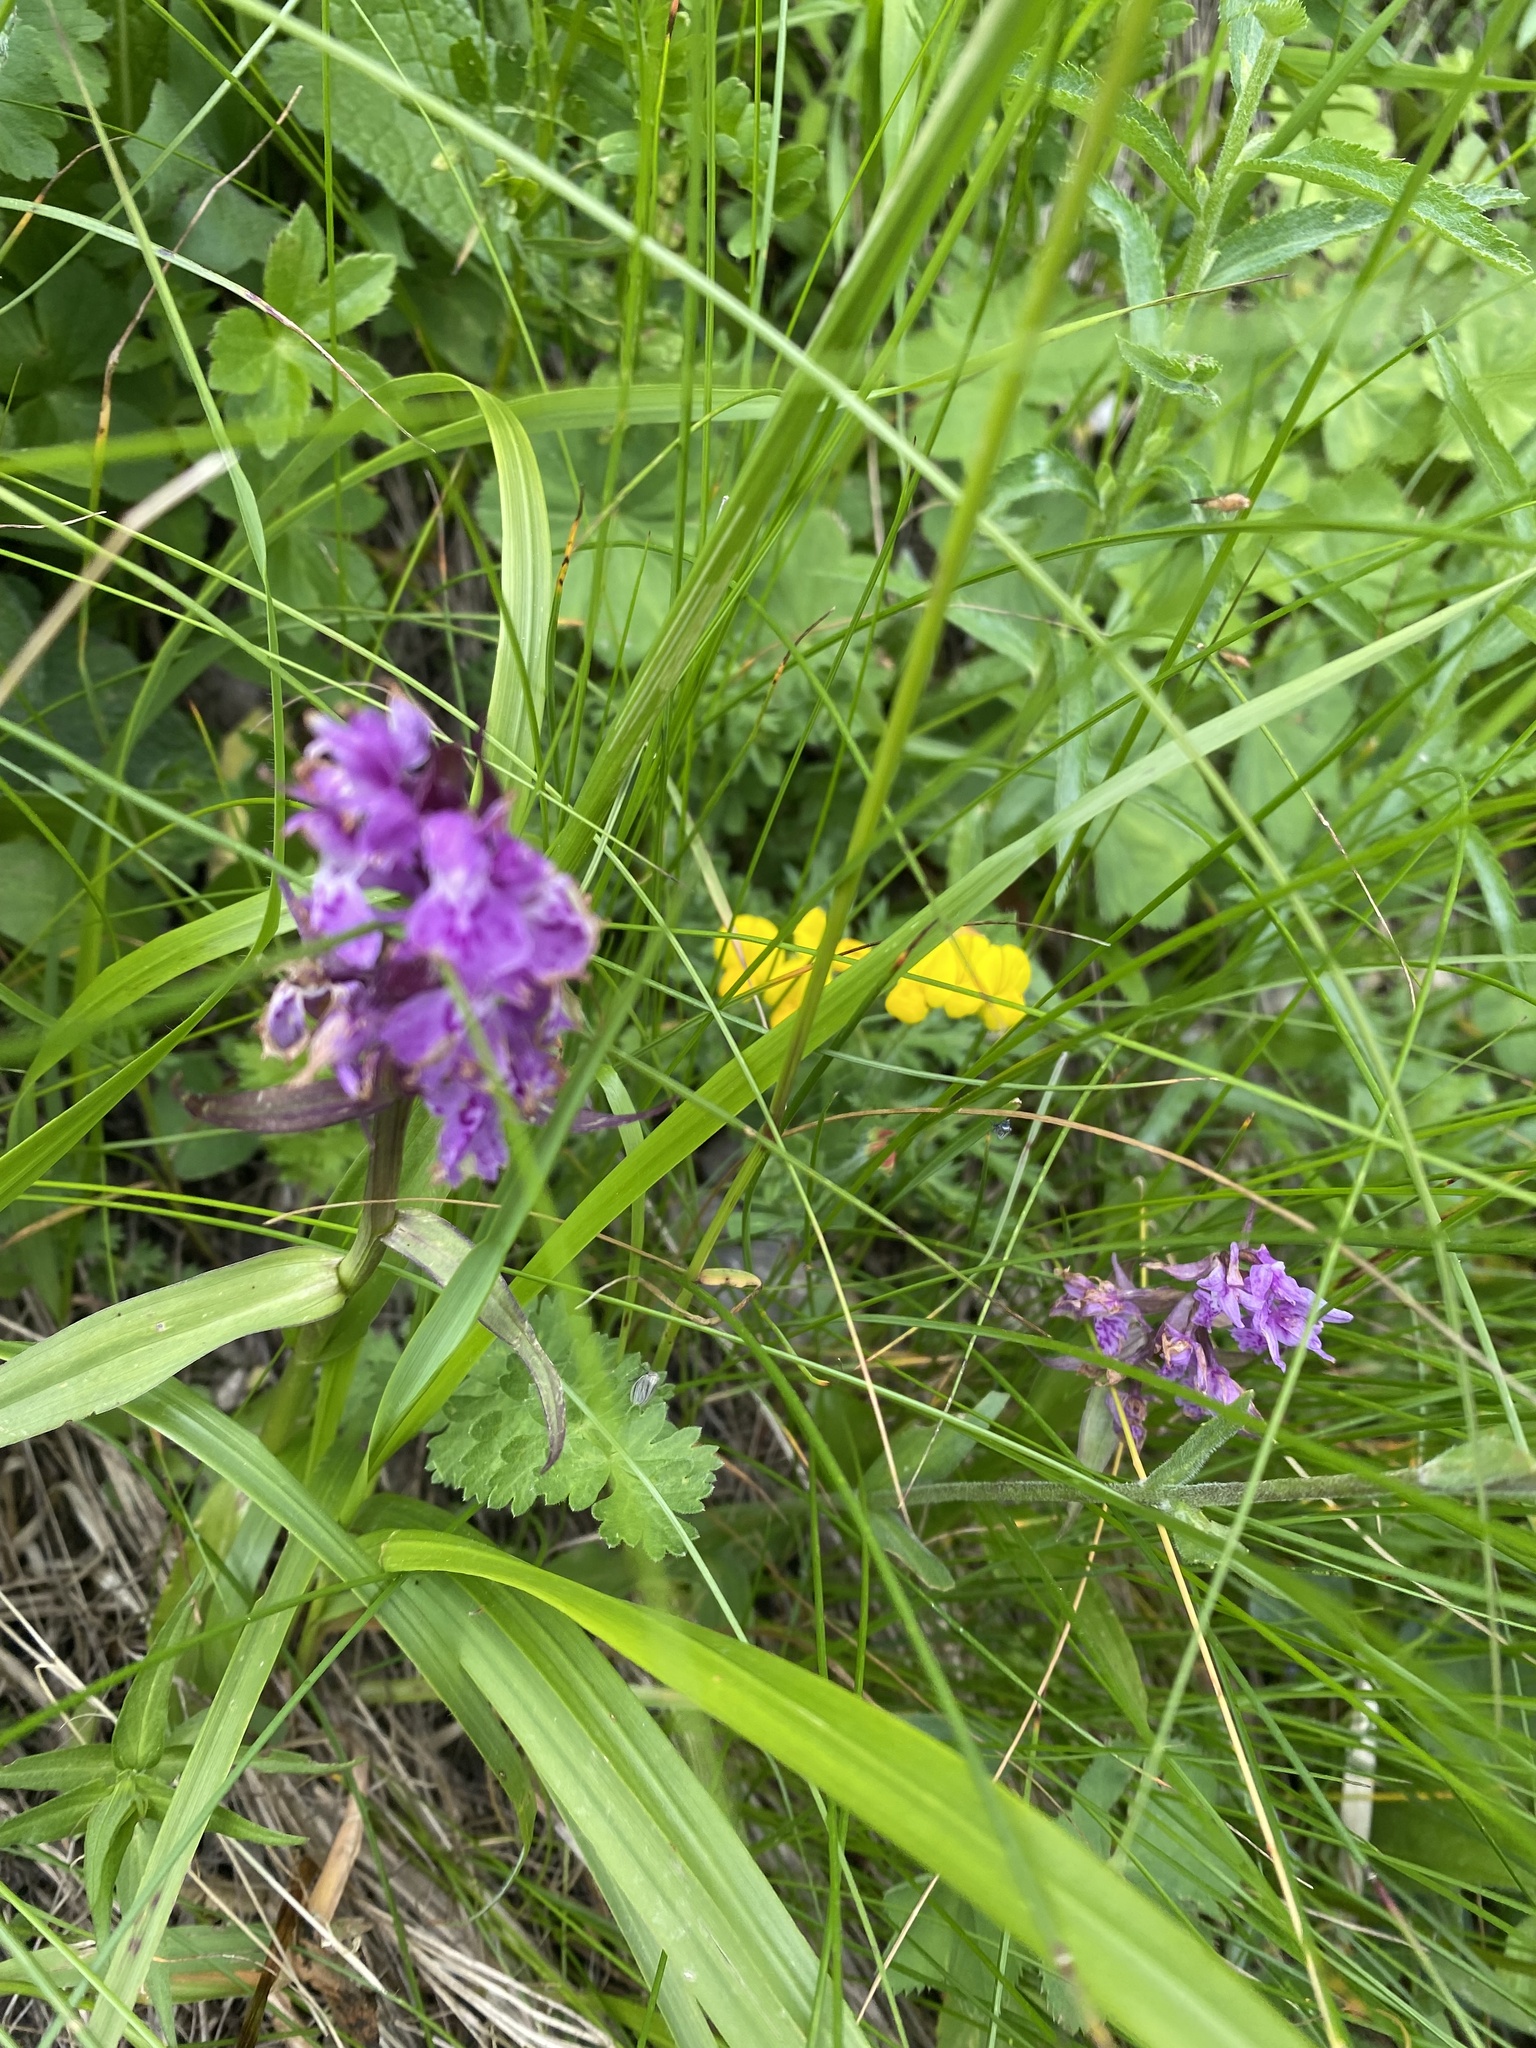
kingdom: Plantae
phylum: Tracheophyta
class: Liliopsida
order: Asparagales
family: Orchidaceae
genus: Dactylorhiza
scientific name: Dactylorhiza euxina
